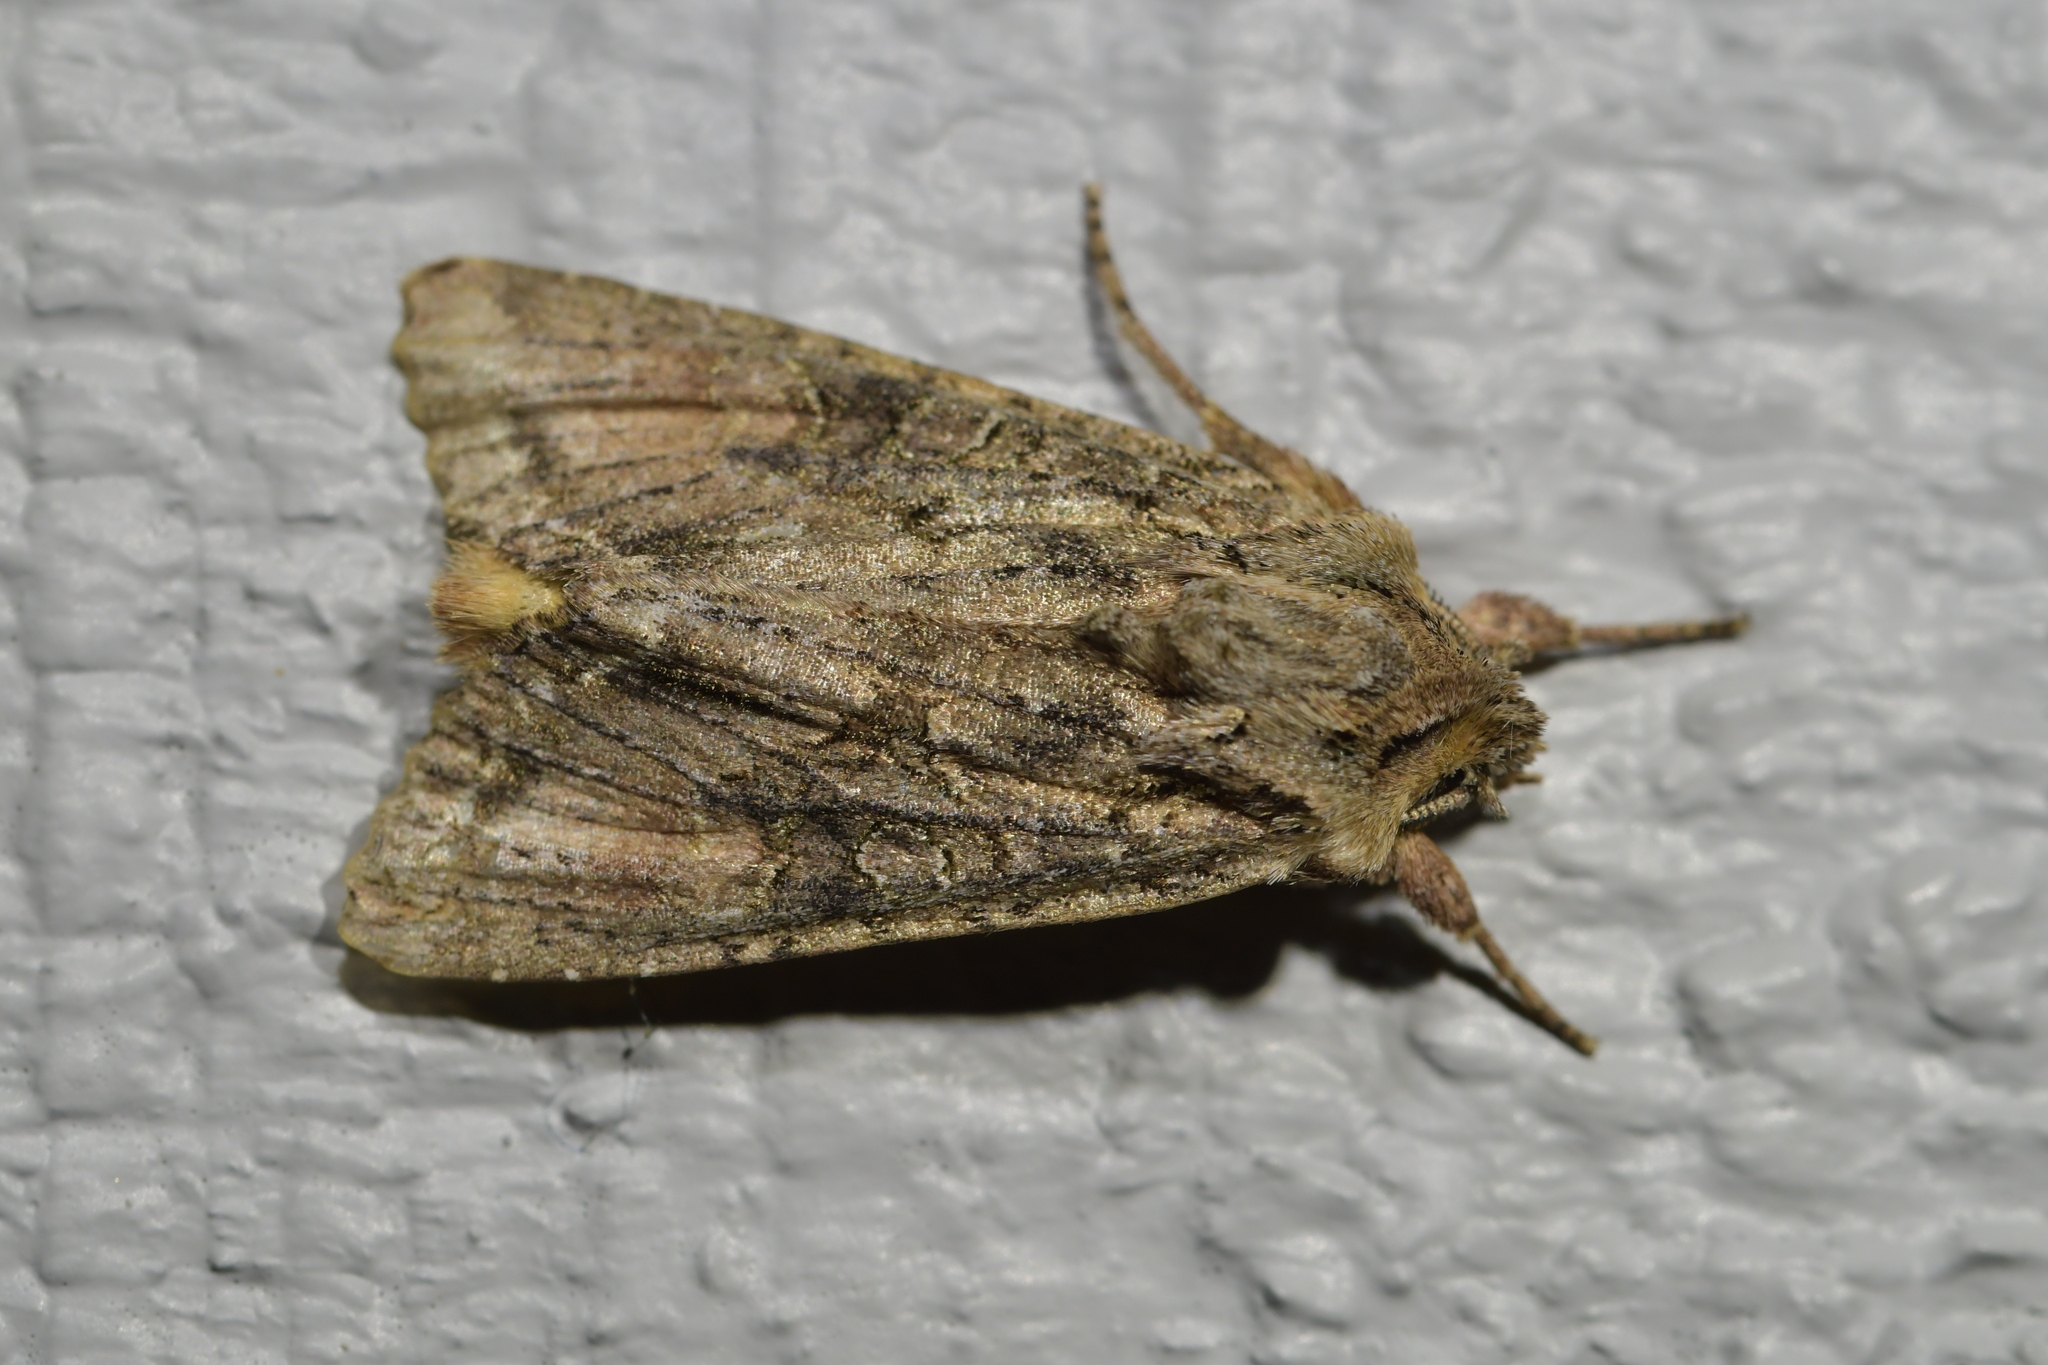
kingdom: Animalia
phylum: Arthropoda
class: Insecta
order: Lepidoptera
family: Noctuidae
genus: Ichneutica
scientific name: Ichneutica mutans
